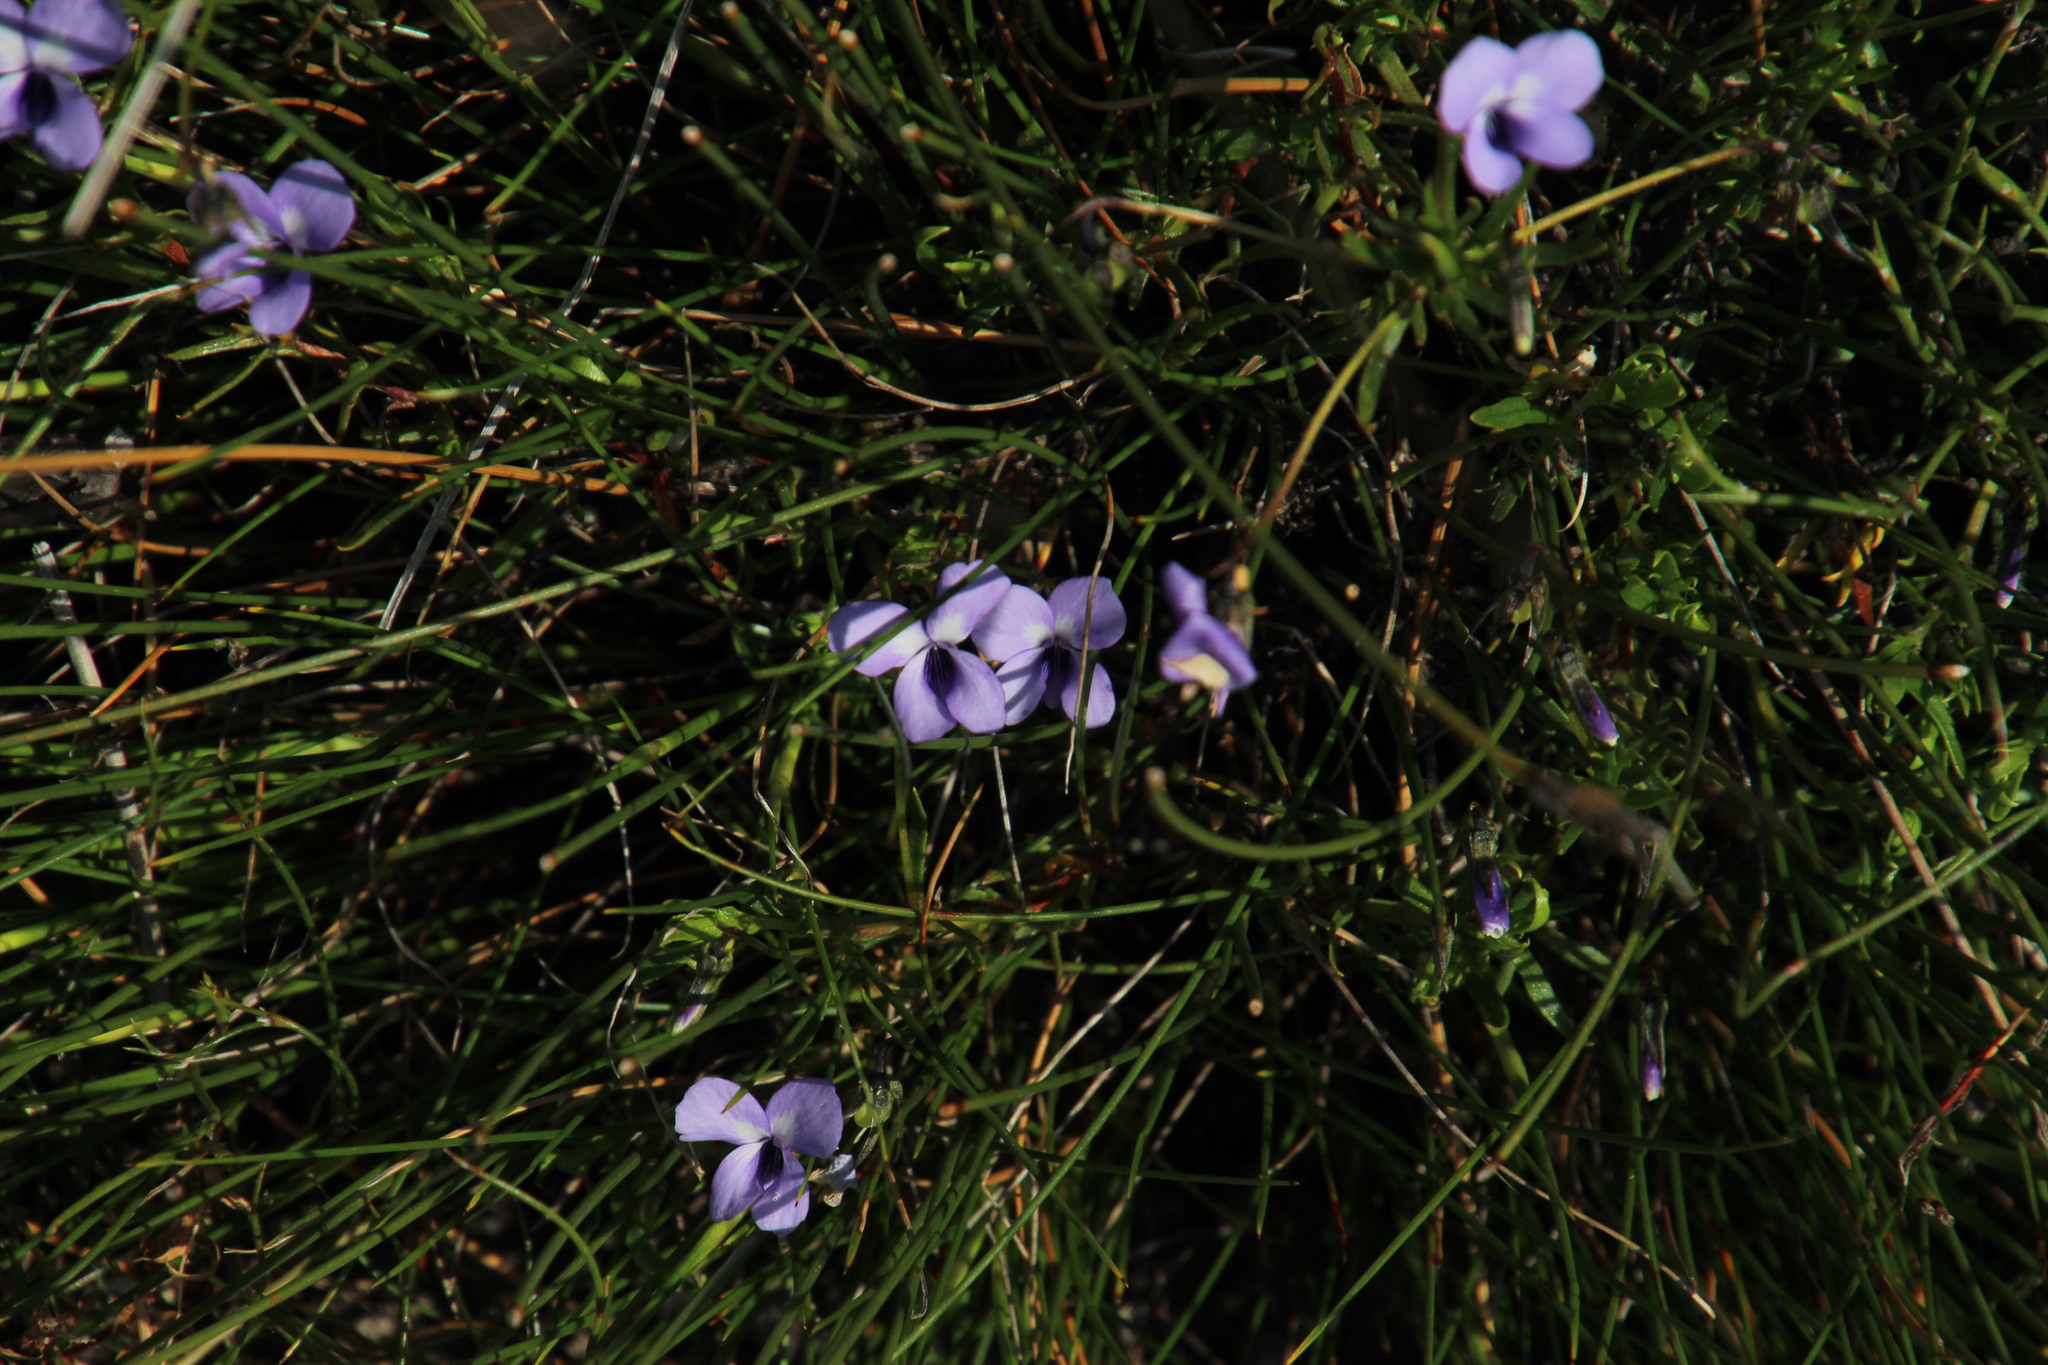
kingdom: Plantae
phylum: Tracheophyta
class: Magnoliopsida
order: Malpighiales
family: Violaceae
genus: Viola
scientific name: Viola decumbens
